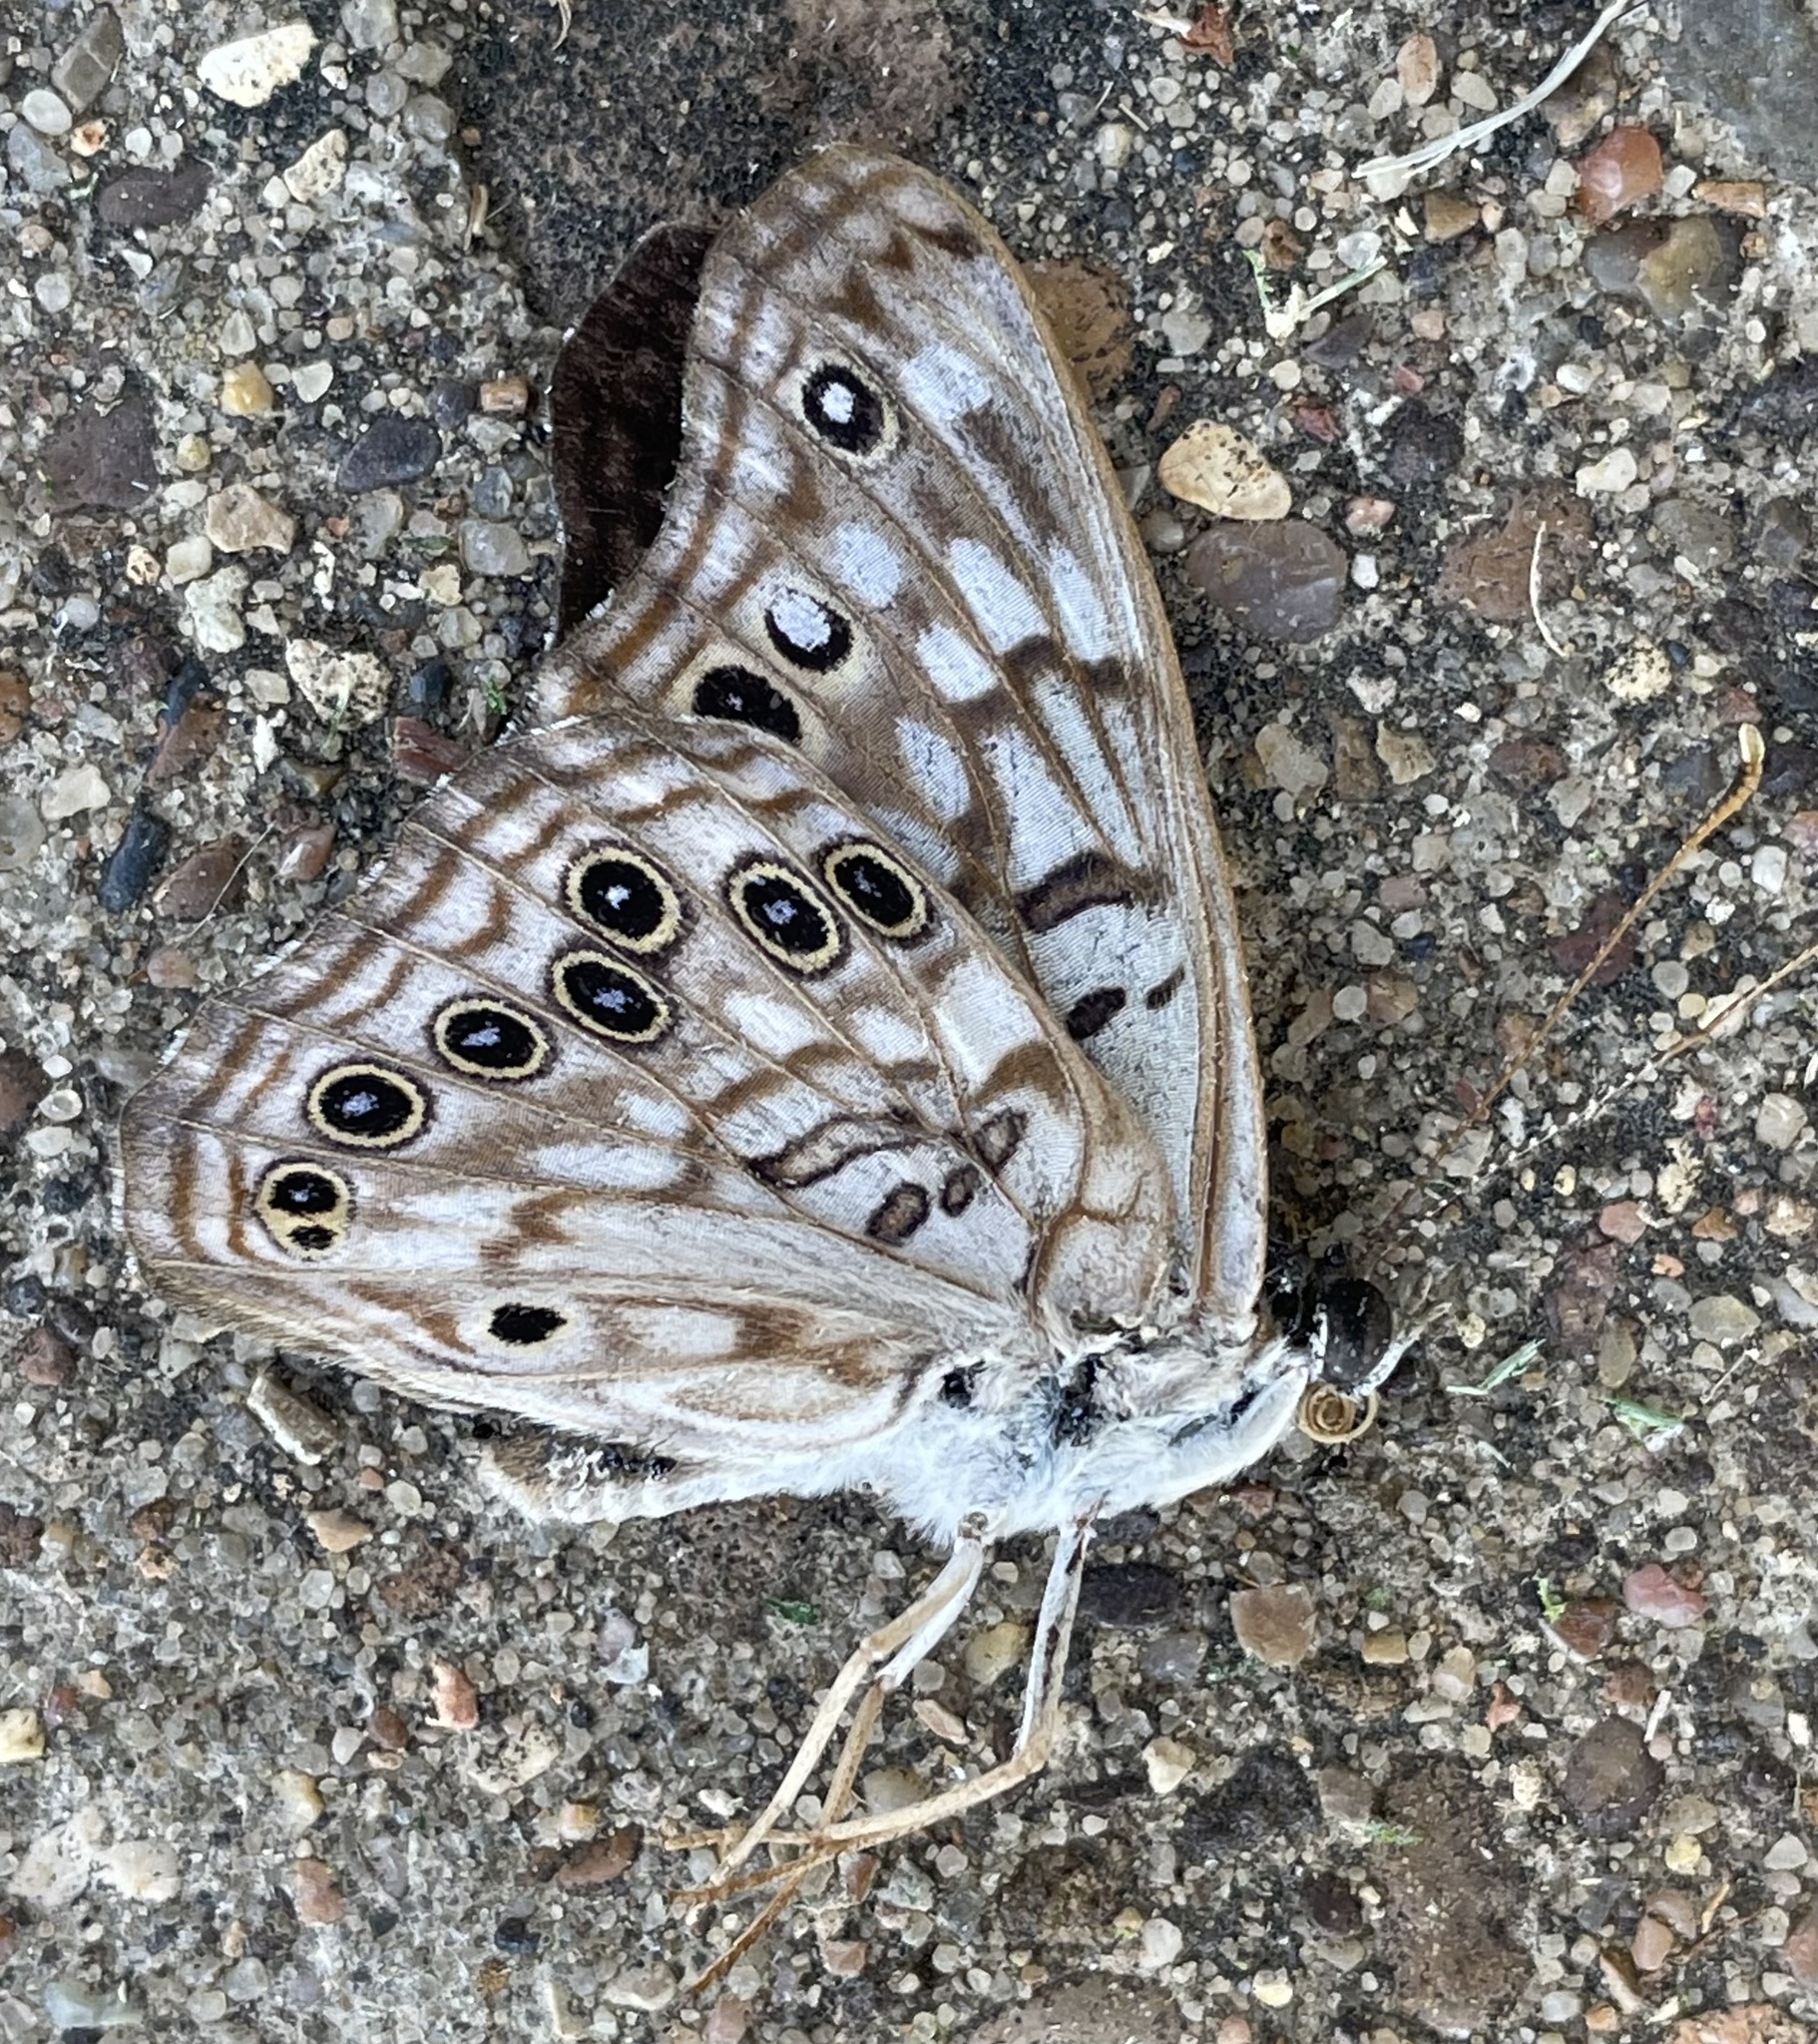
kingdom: Animalia
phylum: Arthropoda
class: Insecta
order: Lepidoptera
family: Nymphalidae
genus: Asterocampa
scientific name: Asterocampa celtis
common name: Hackberry emperor
